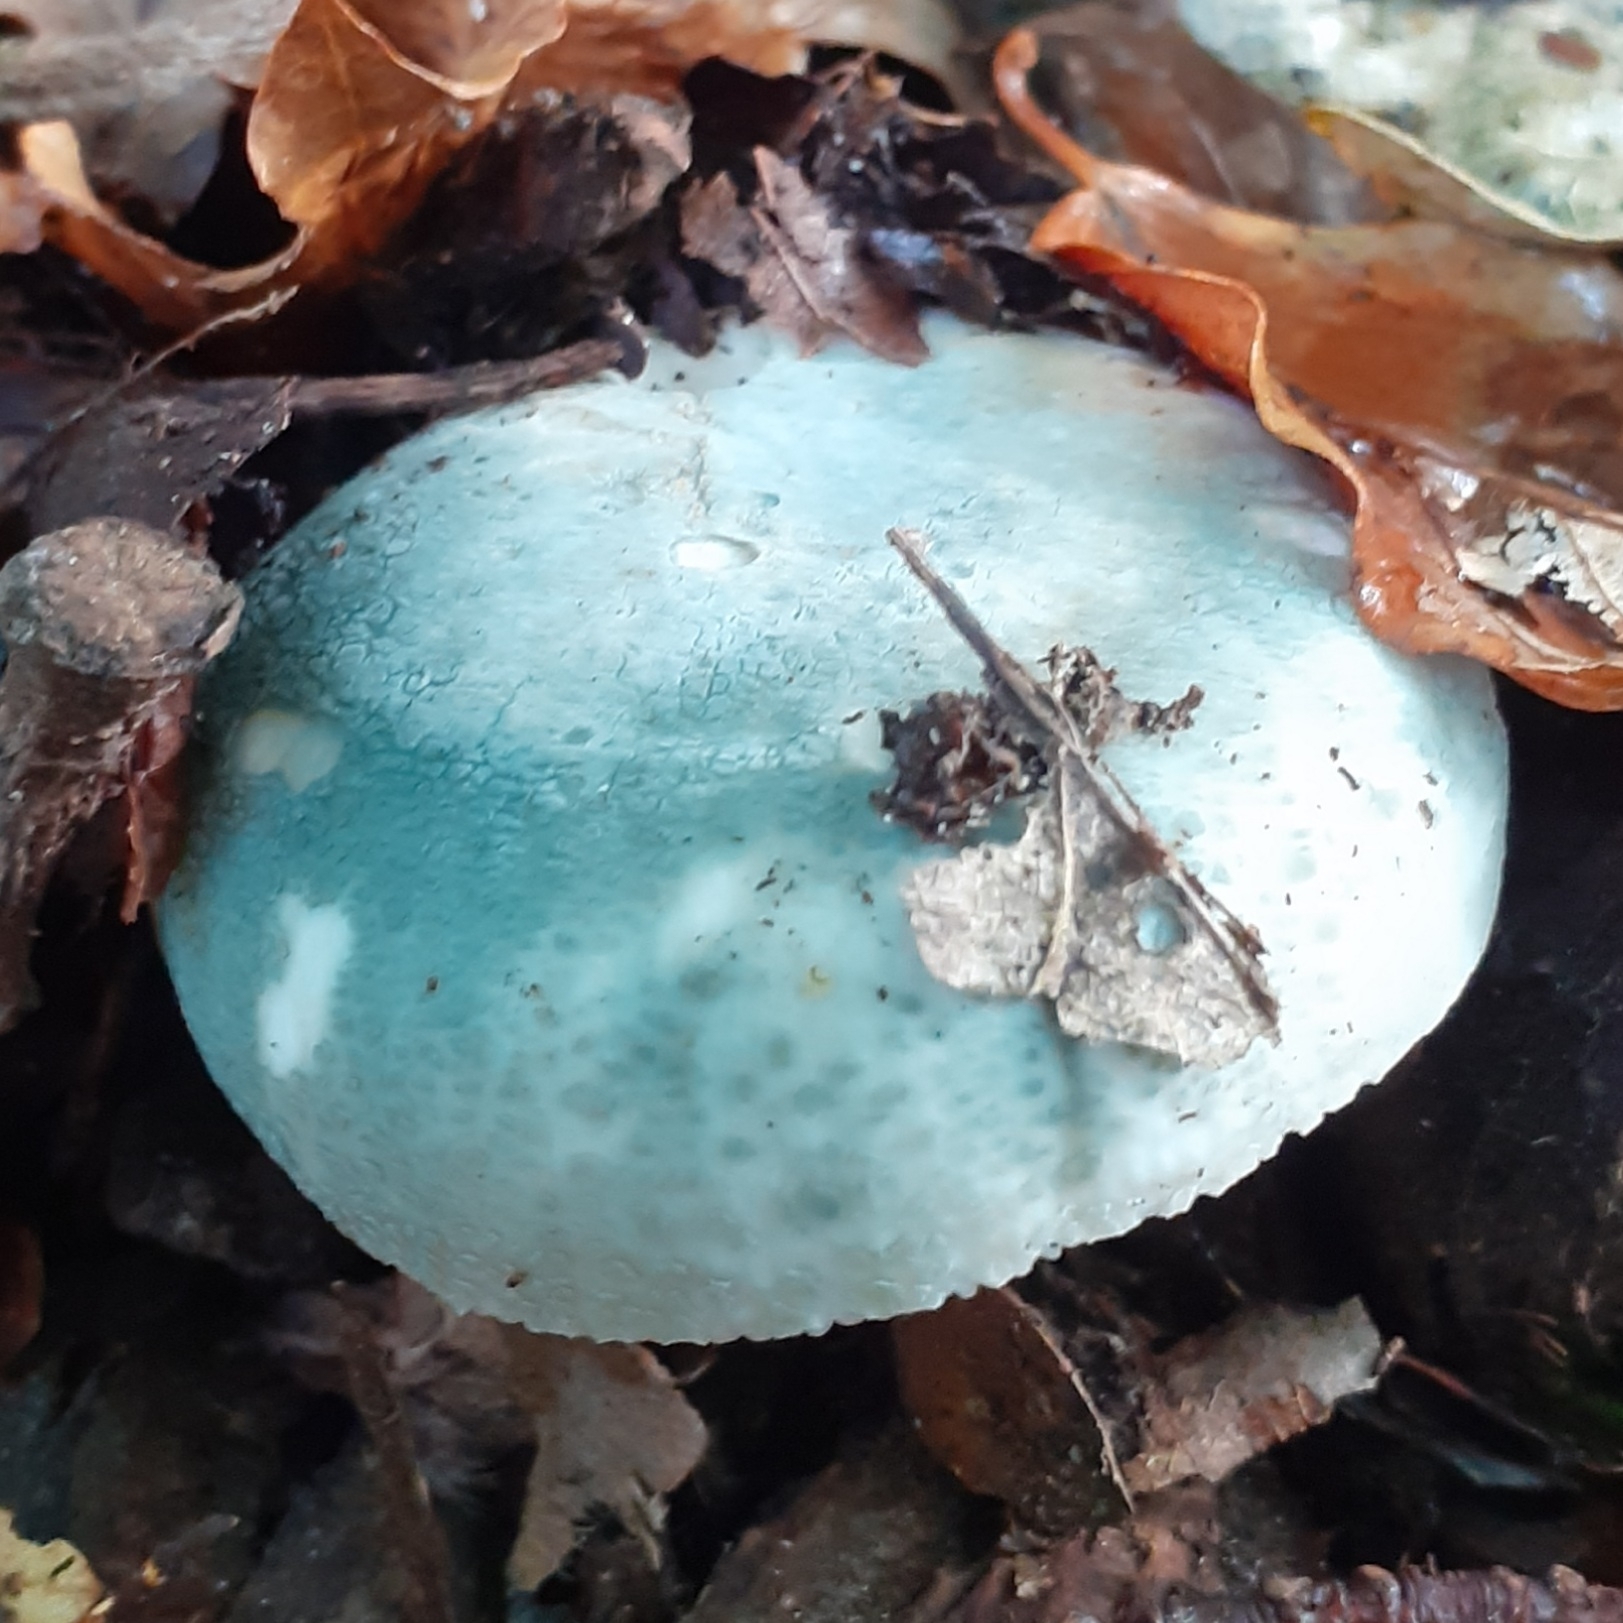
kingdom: Fungi
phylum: Basidiomycota
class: Agaricomycetes
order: Russulales
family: Russulaceae
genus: Russula
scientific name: Russula virescens
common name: Greencracked brittlegill
